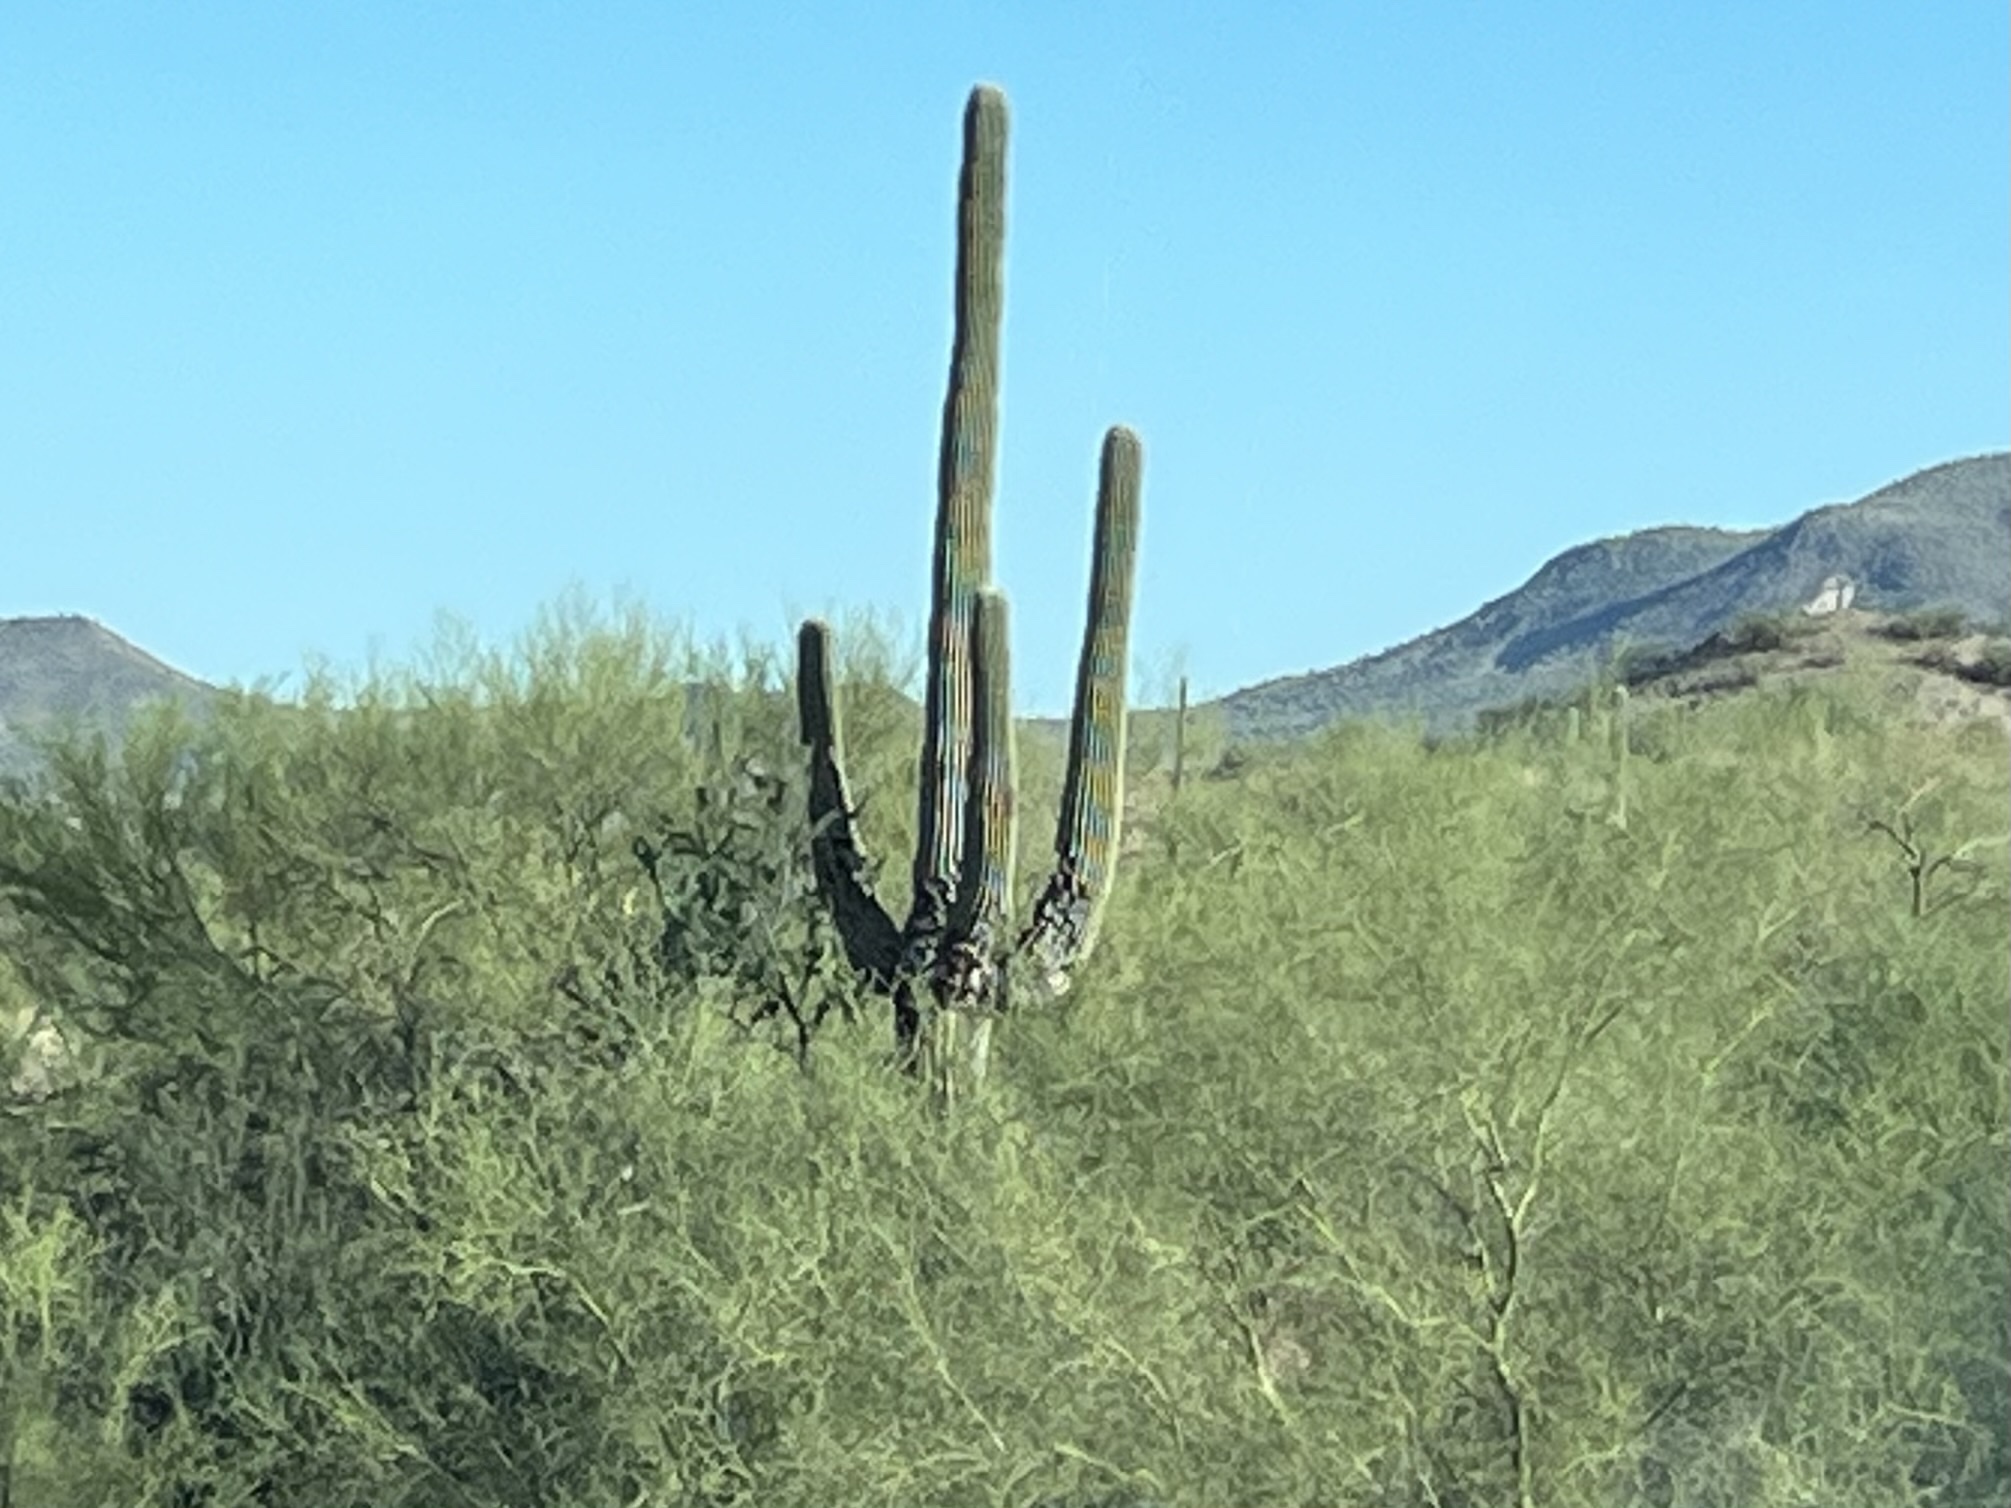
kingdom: Plantae
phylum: Tracheophyta
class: Magnoliopsida
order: Caryophyllales
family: Cactaceae
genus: Carnegiea
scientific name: Carnegiea gigantea
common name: Saguaro
